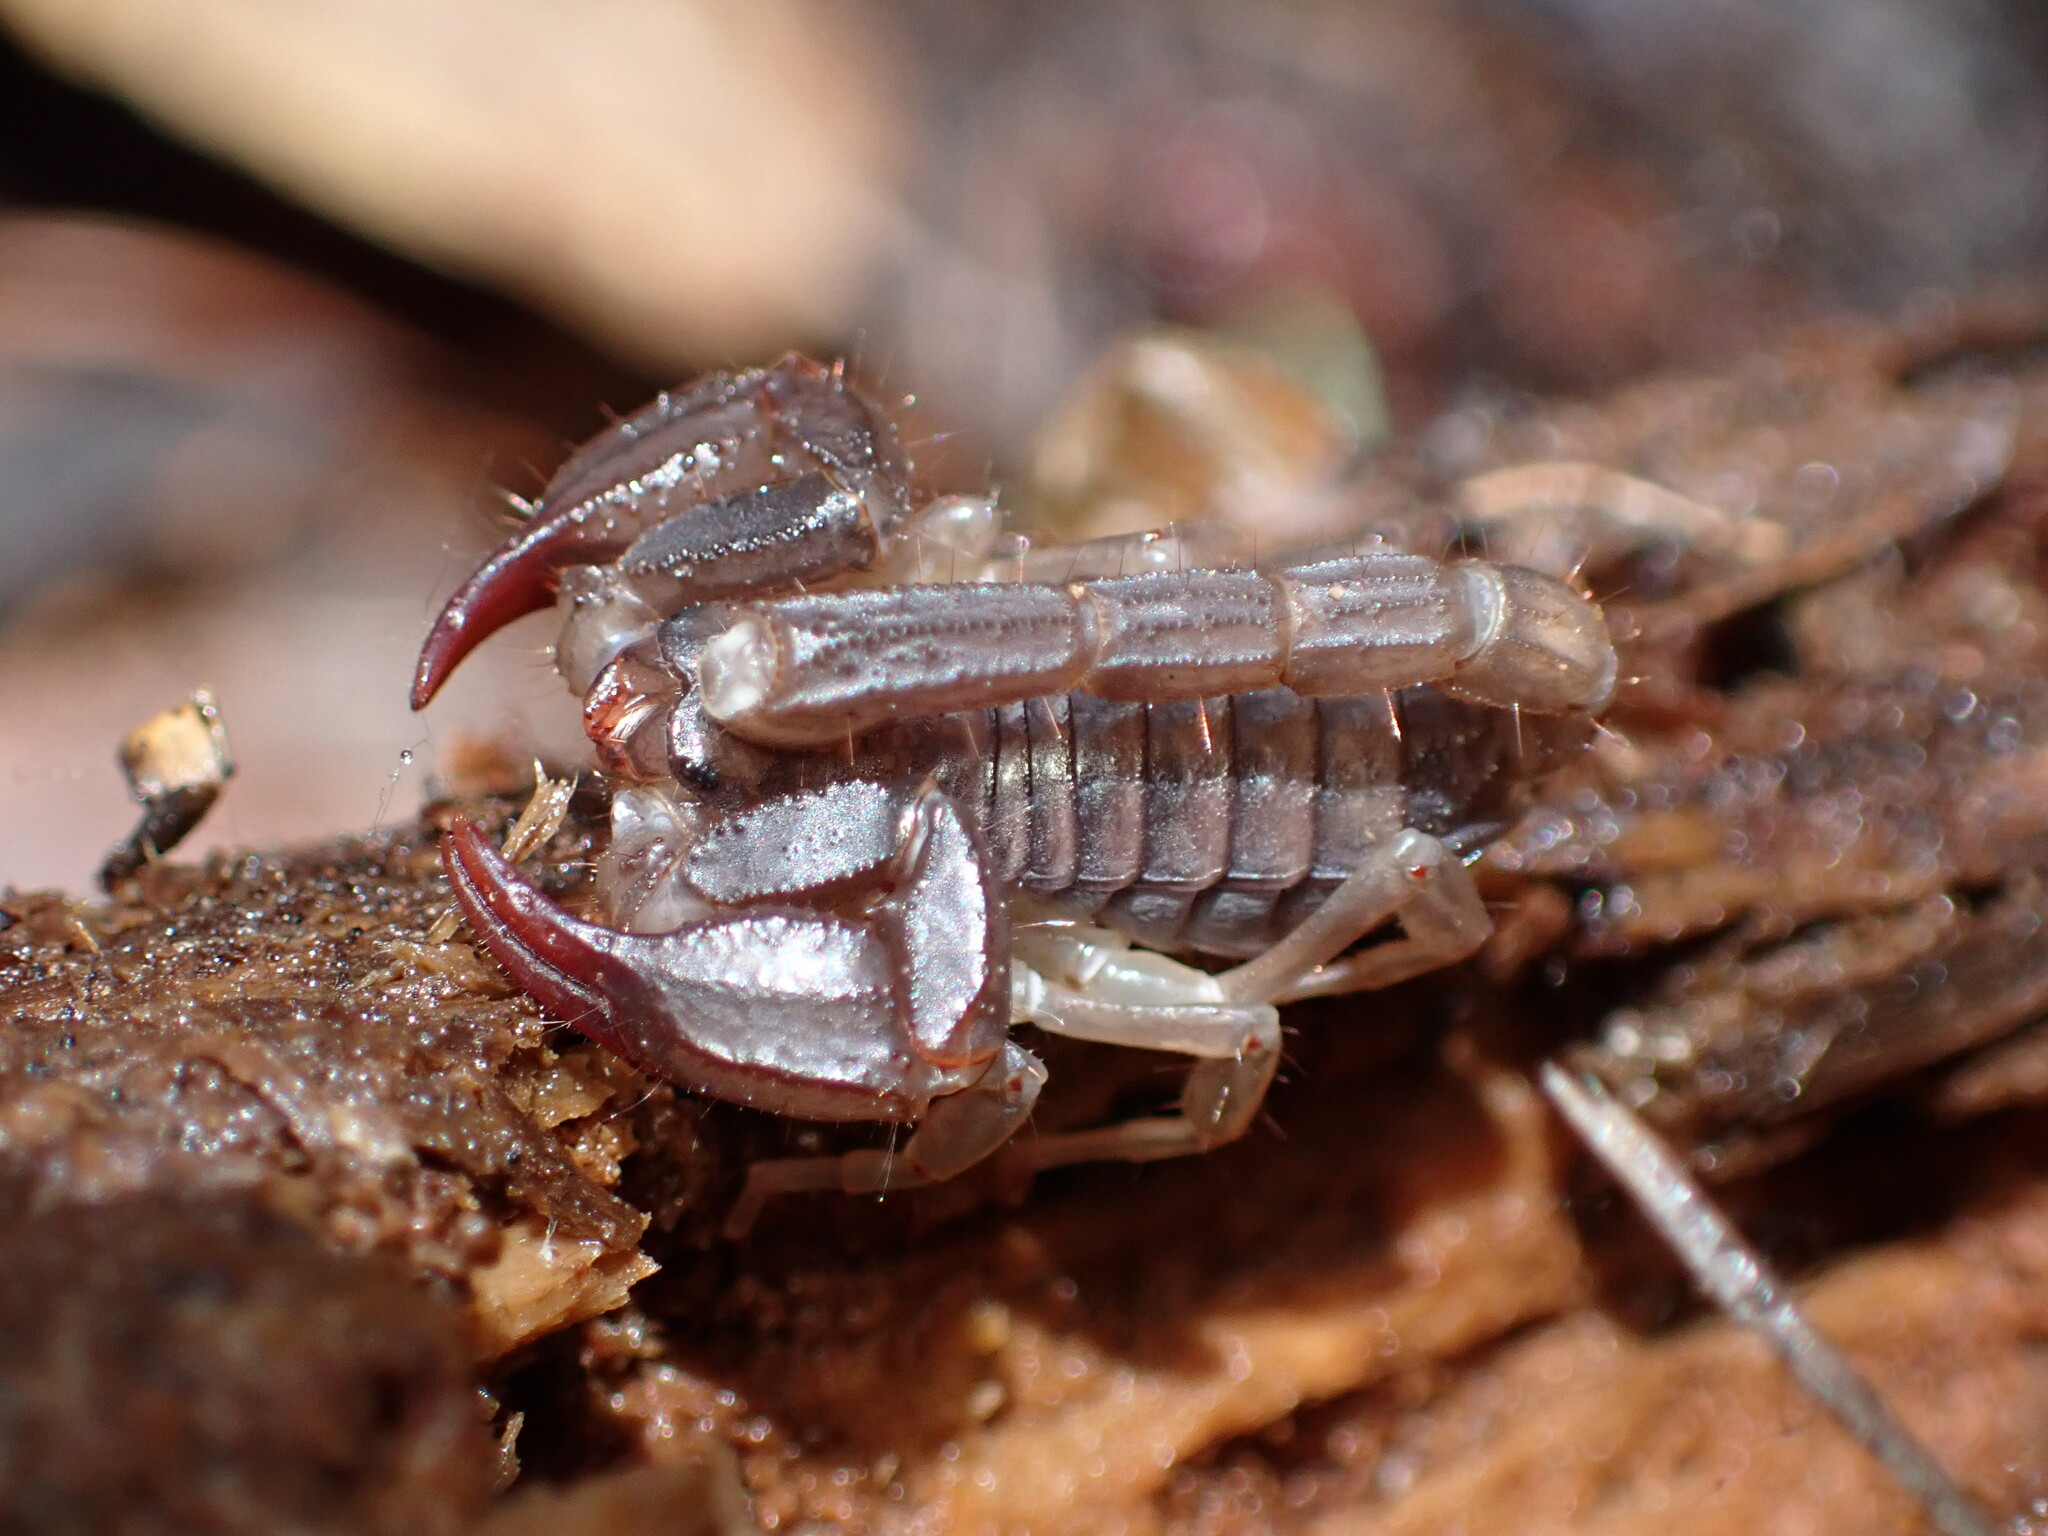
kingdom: Animalia
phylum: Arthropoda
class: Arachnida
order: Scorpiones
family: Chactidae
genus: Uroctonus
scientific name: Uroctonus mordax
